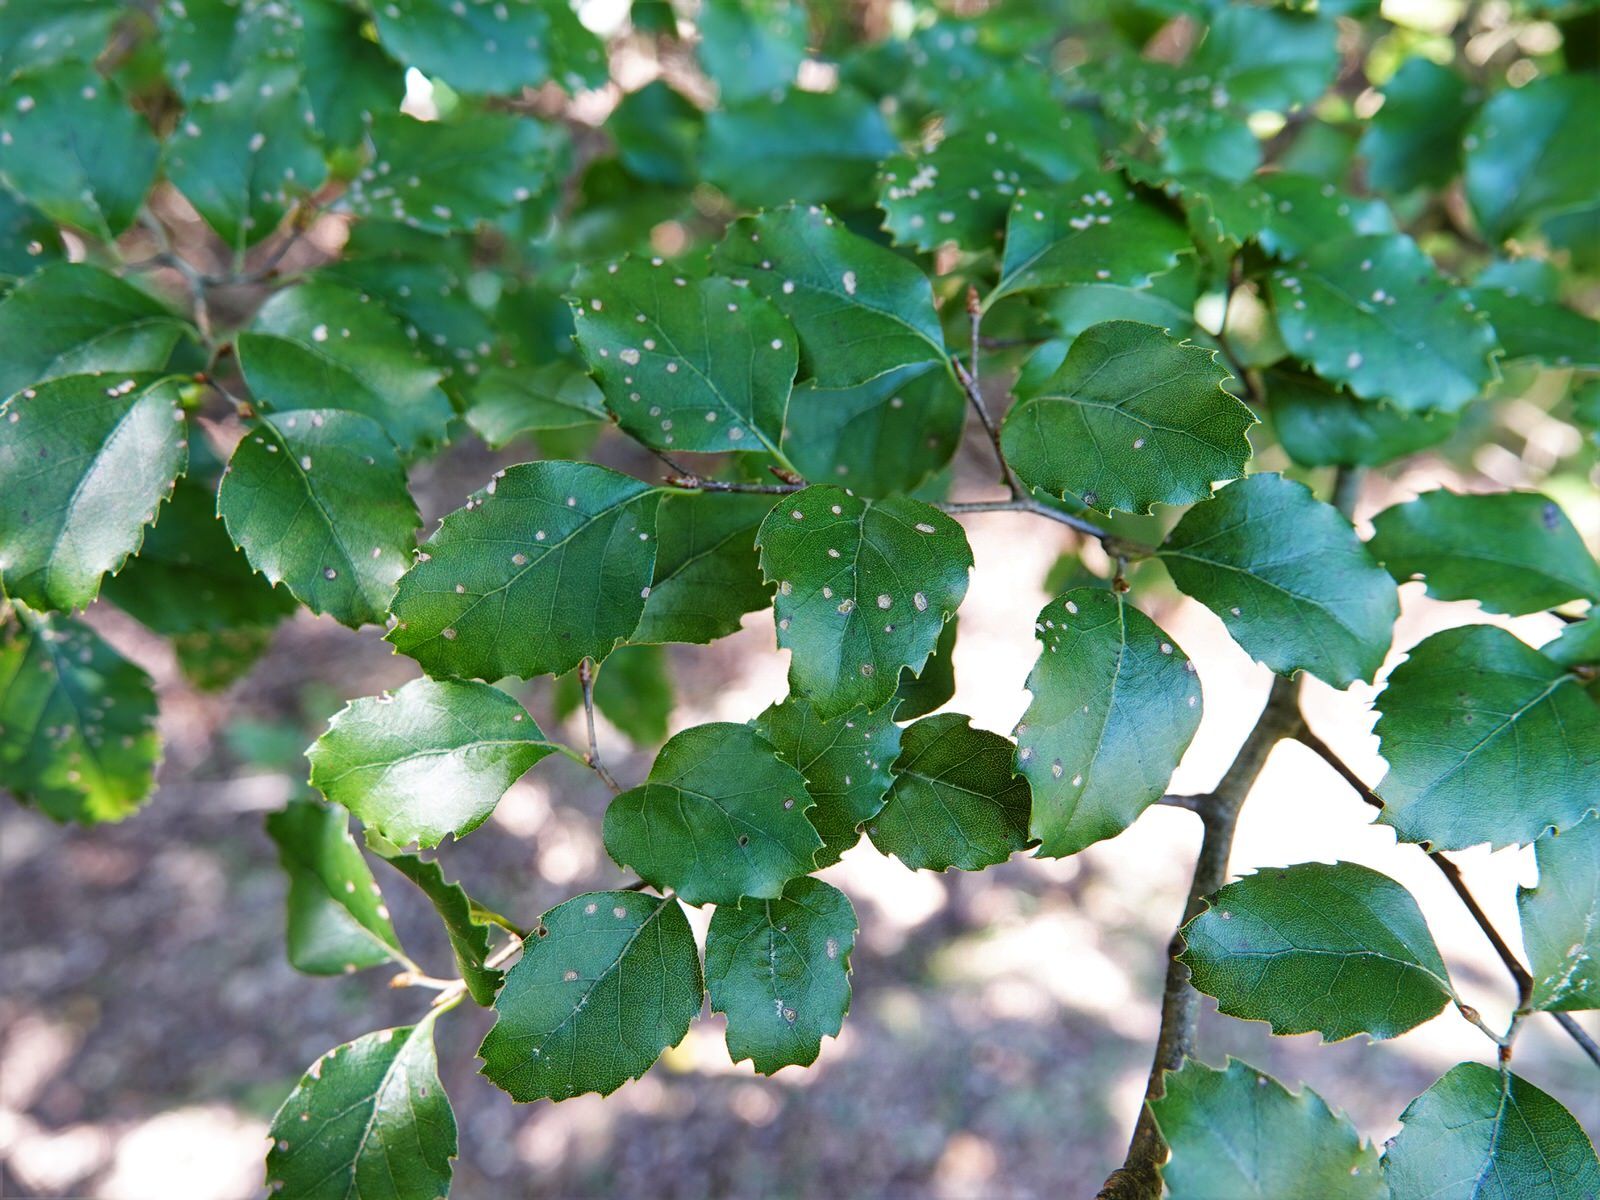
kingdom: Plantae
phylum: Tracheophyta
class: Magnoliopsida
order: Fagales
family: Nothofagaceae
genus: Nothofagus
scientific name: Nothofagus fusca
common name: Red beech
